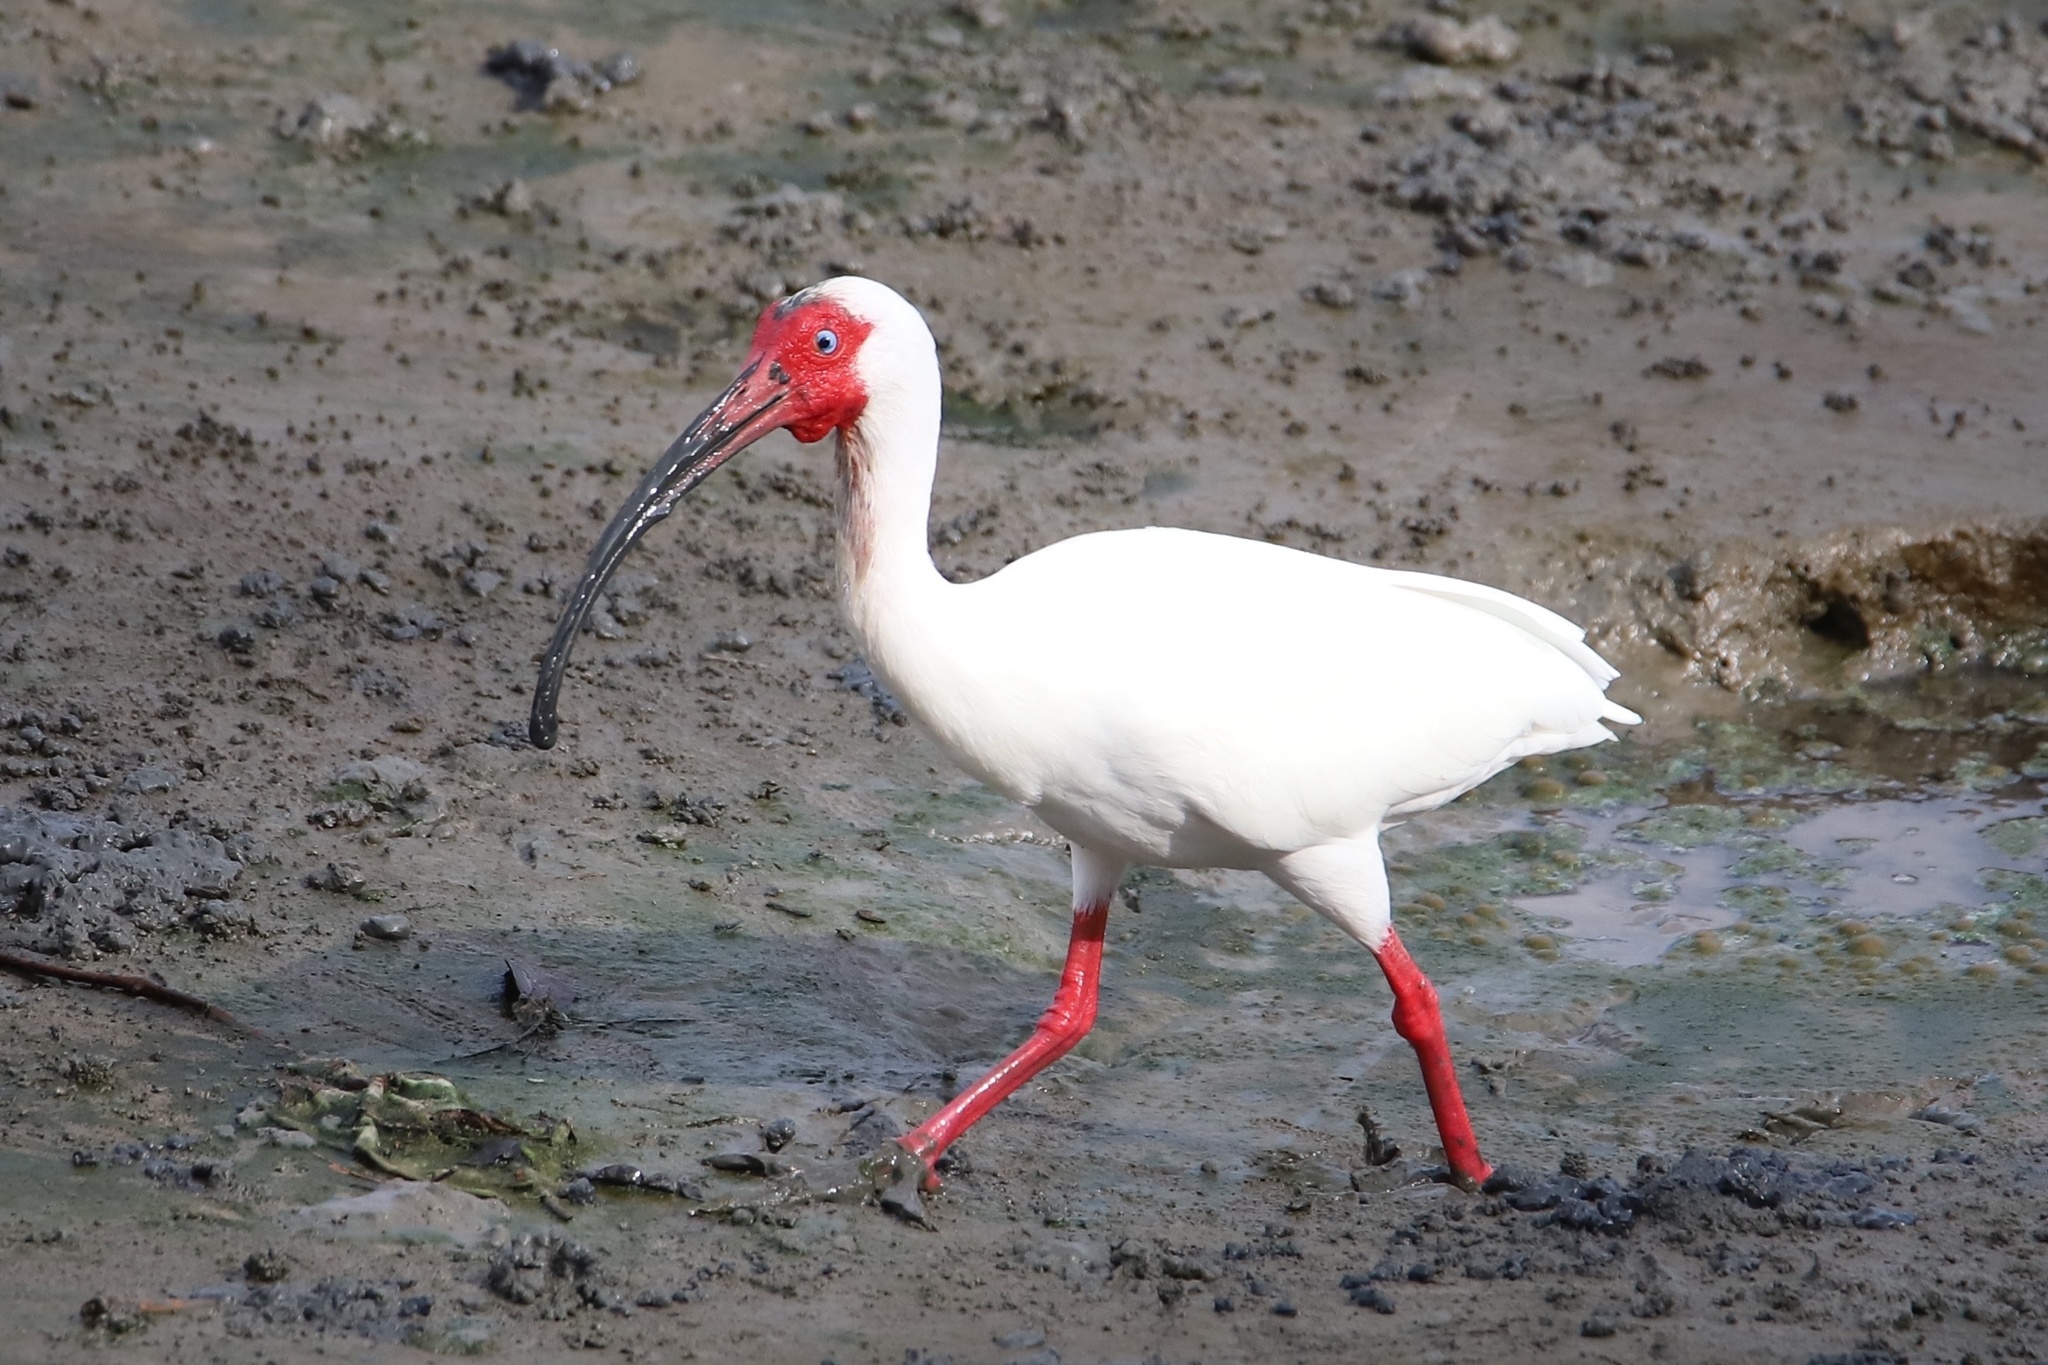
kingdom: Animalia
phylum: Chordata
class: Aves
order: Pelecaniformes
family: Threskiornithidae
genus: Eudocimus
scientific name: Eudocimus albus
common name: White ibis
